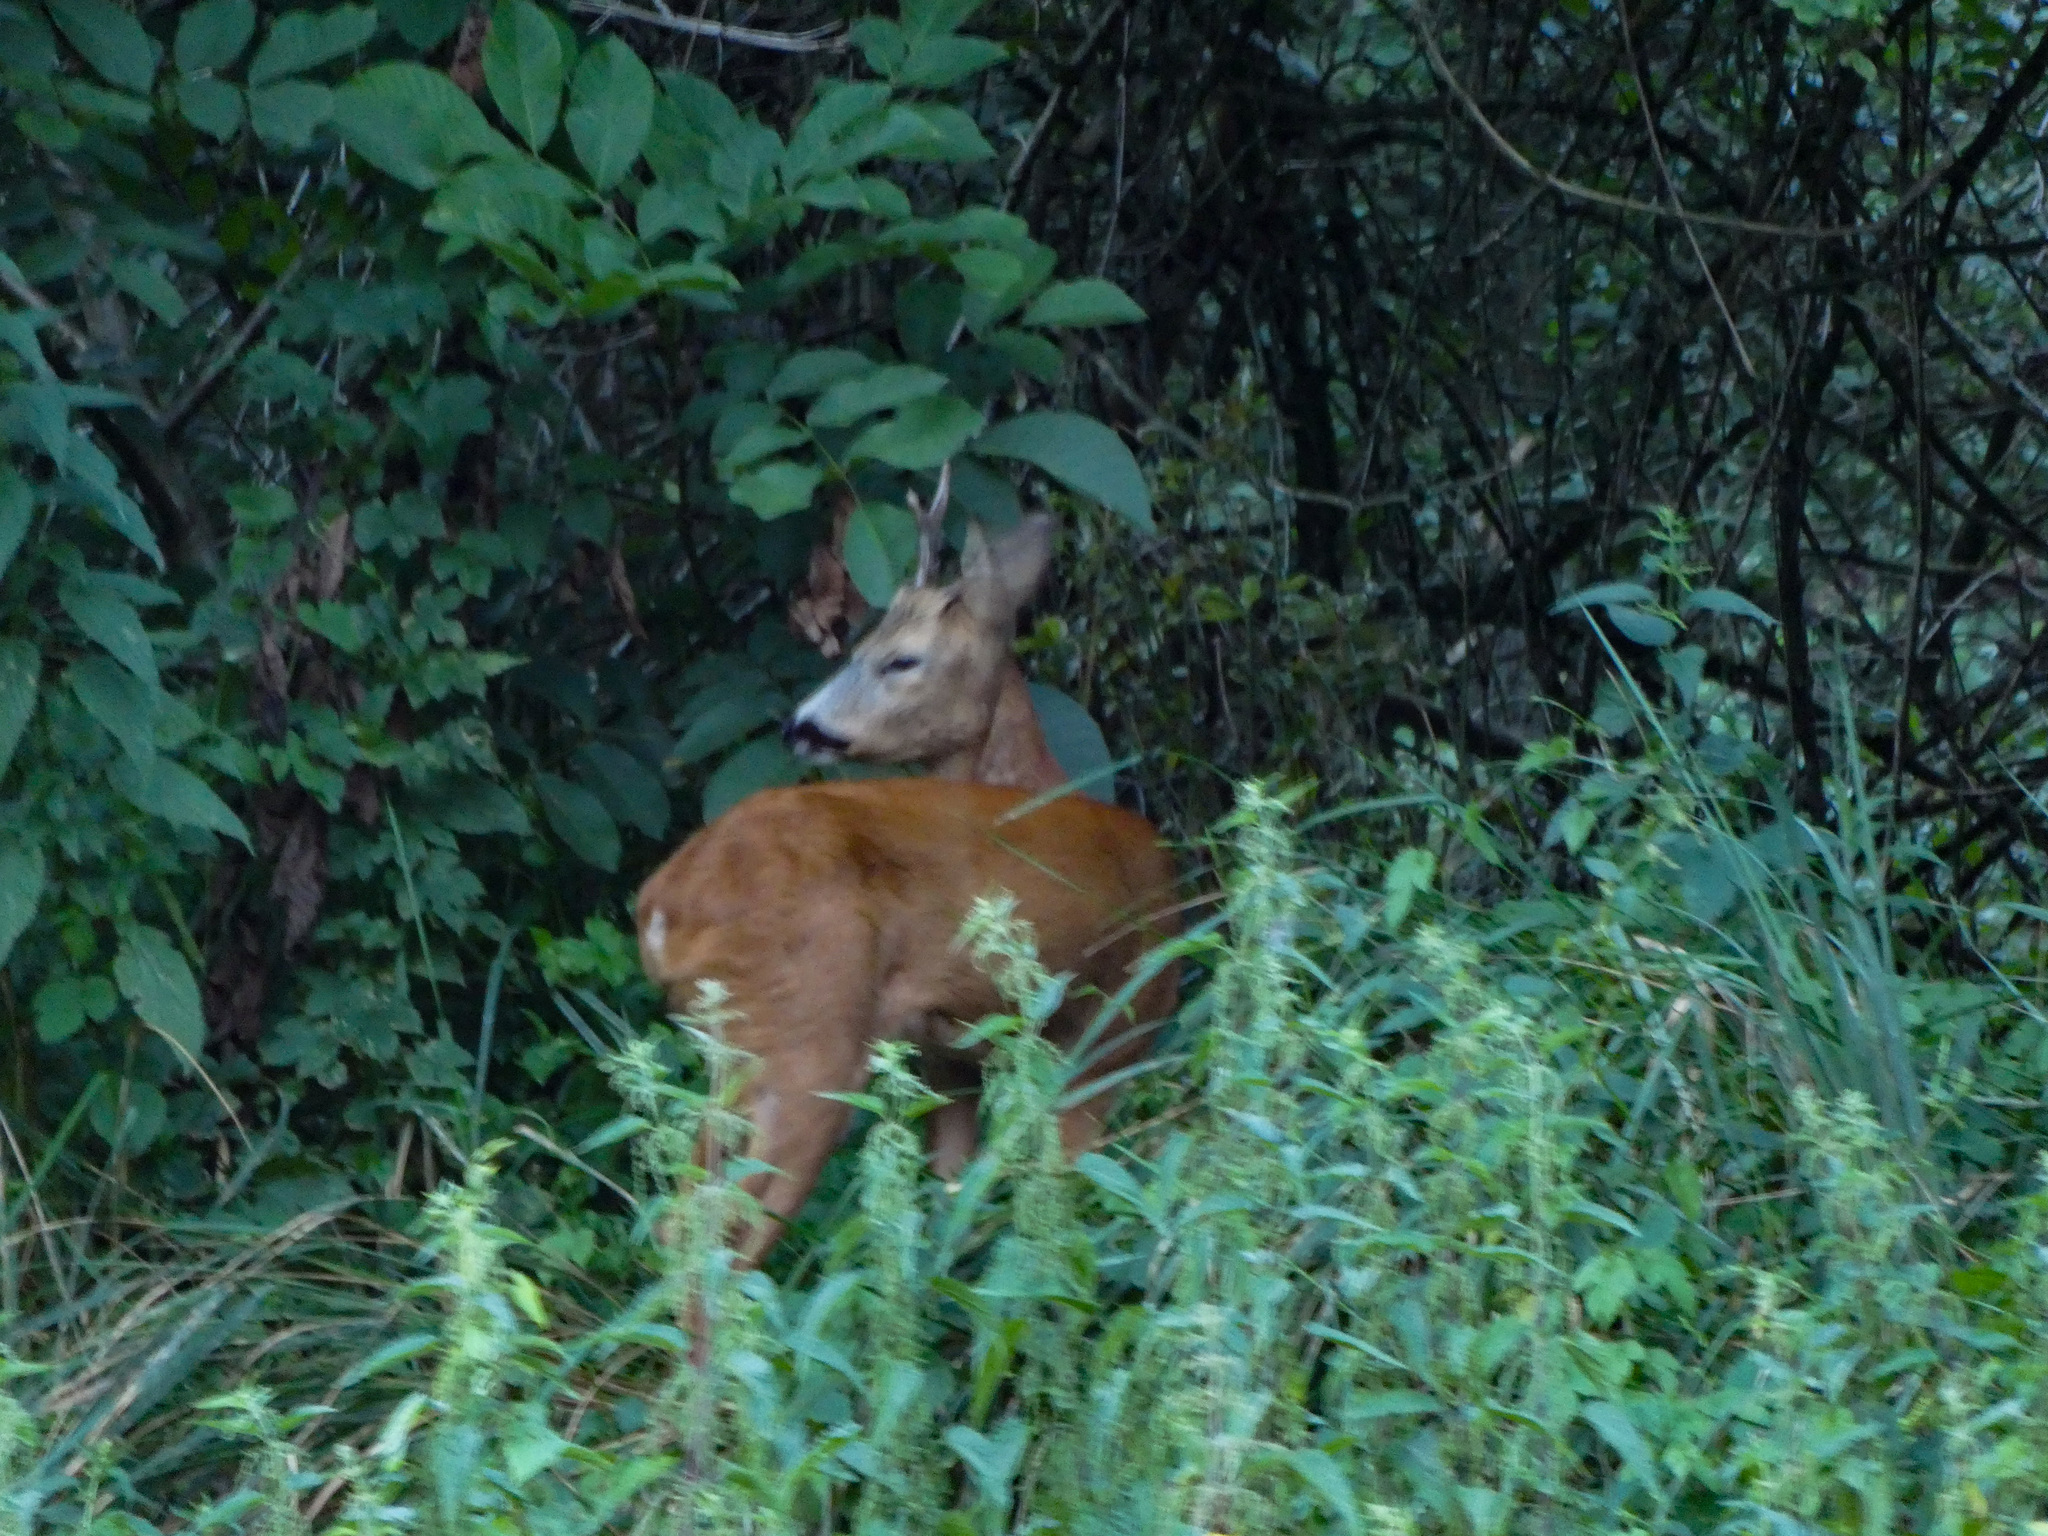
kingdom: Animalia
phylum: Chordata
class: Mammalia
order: Artiodactyla
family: Cervidae
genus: Capreolus
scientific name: Capreolus capreolus
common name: Western roe deer
